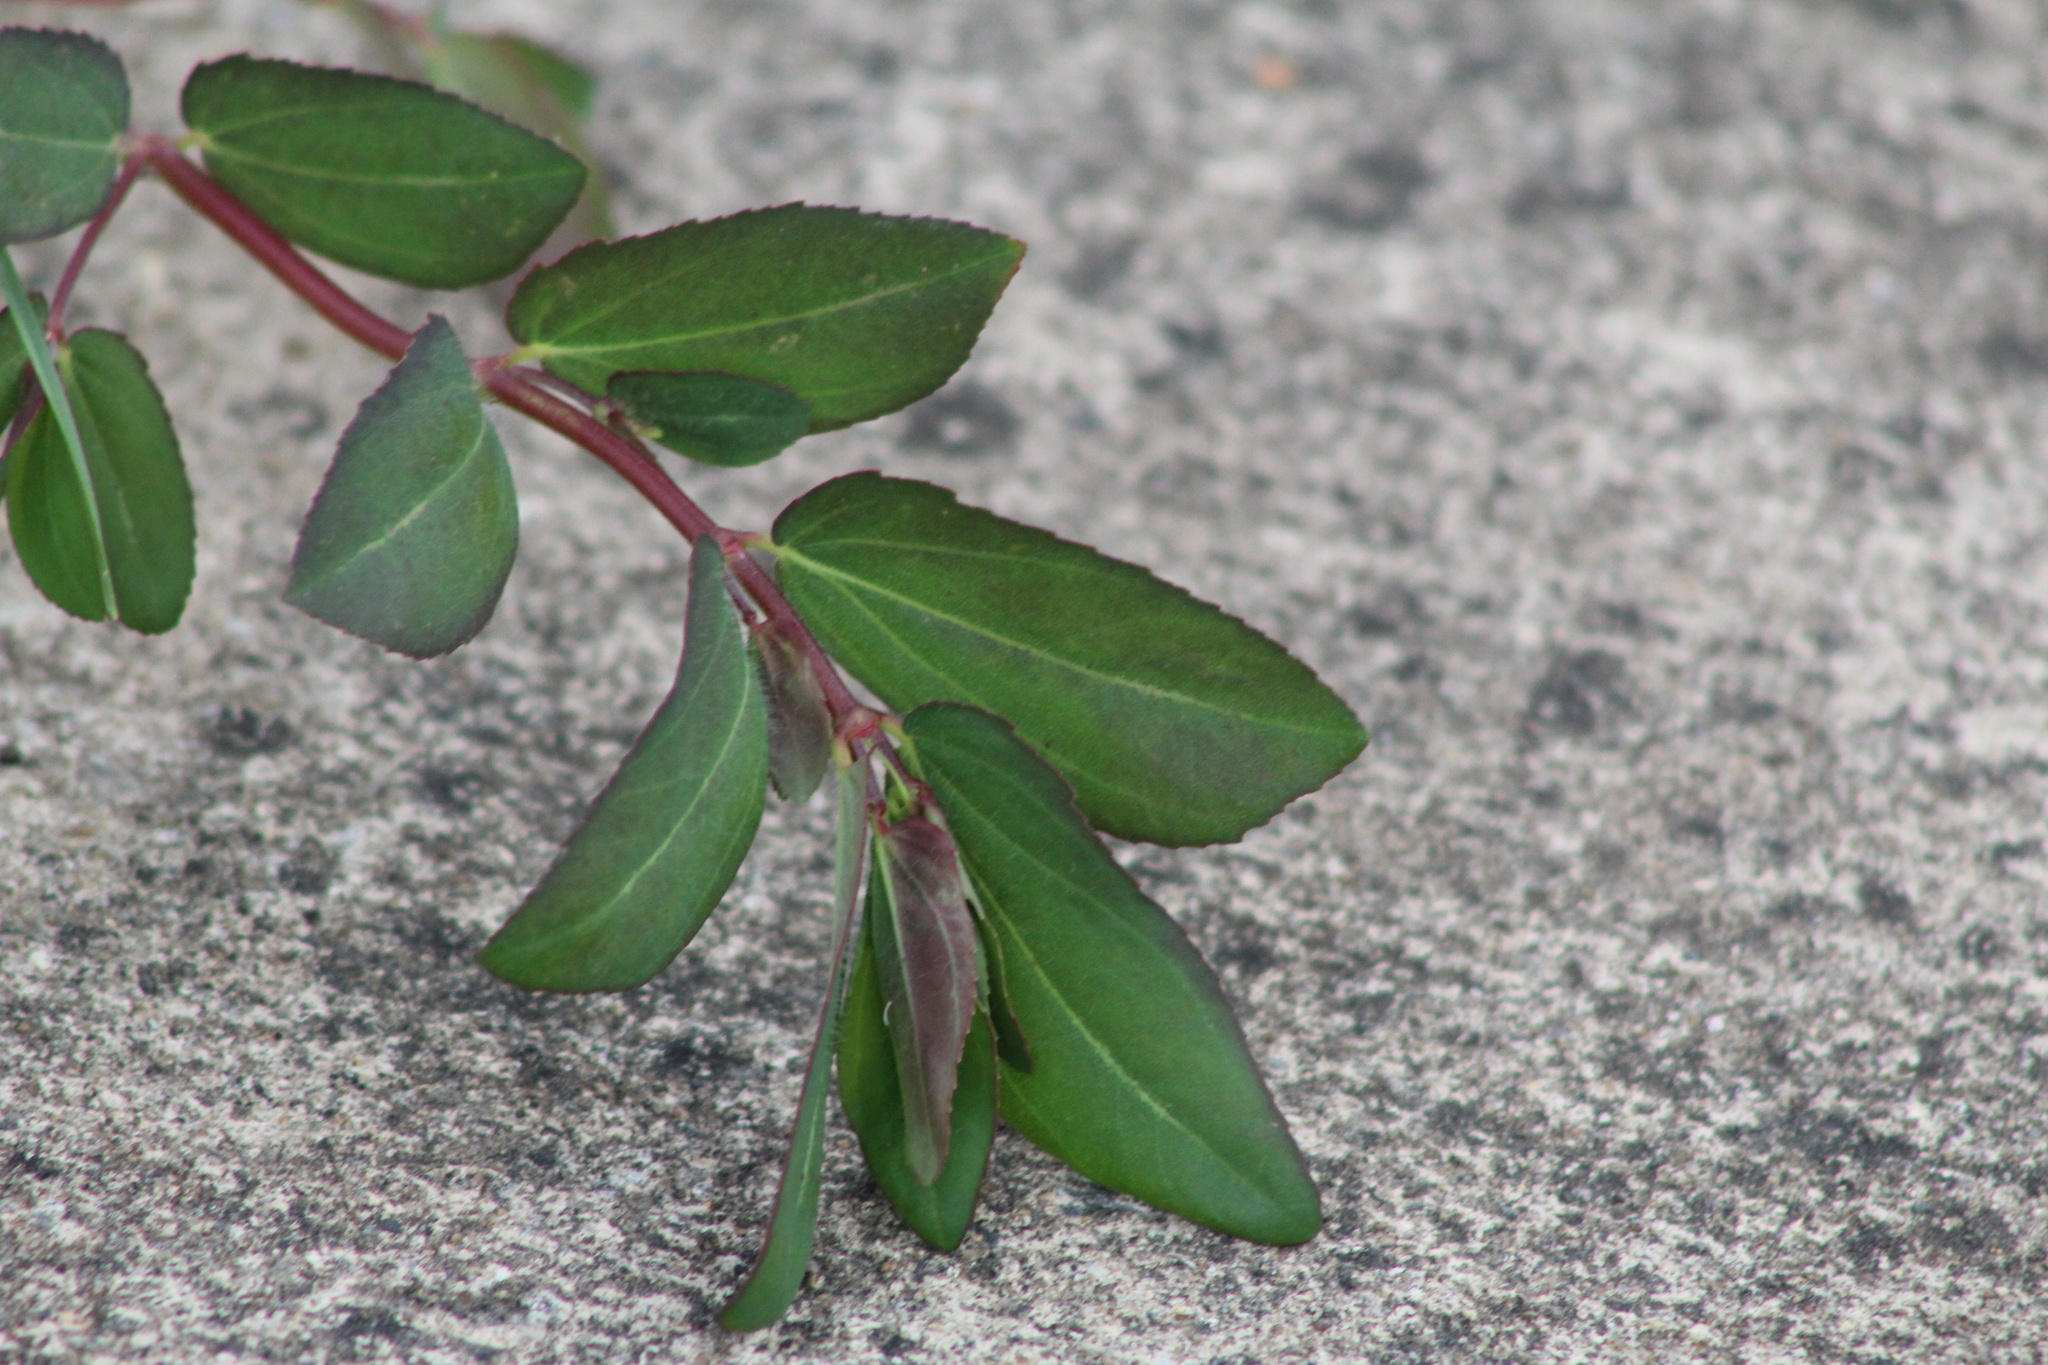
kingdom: Plantae
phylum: Tracheophyta
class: Magnoliopsida
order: Malpighiales
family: Euphorbiaceae
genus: Euphorbia
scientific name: Euphorbia nutans
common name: Eyebane
